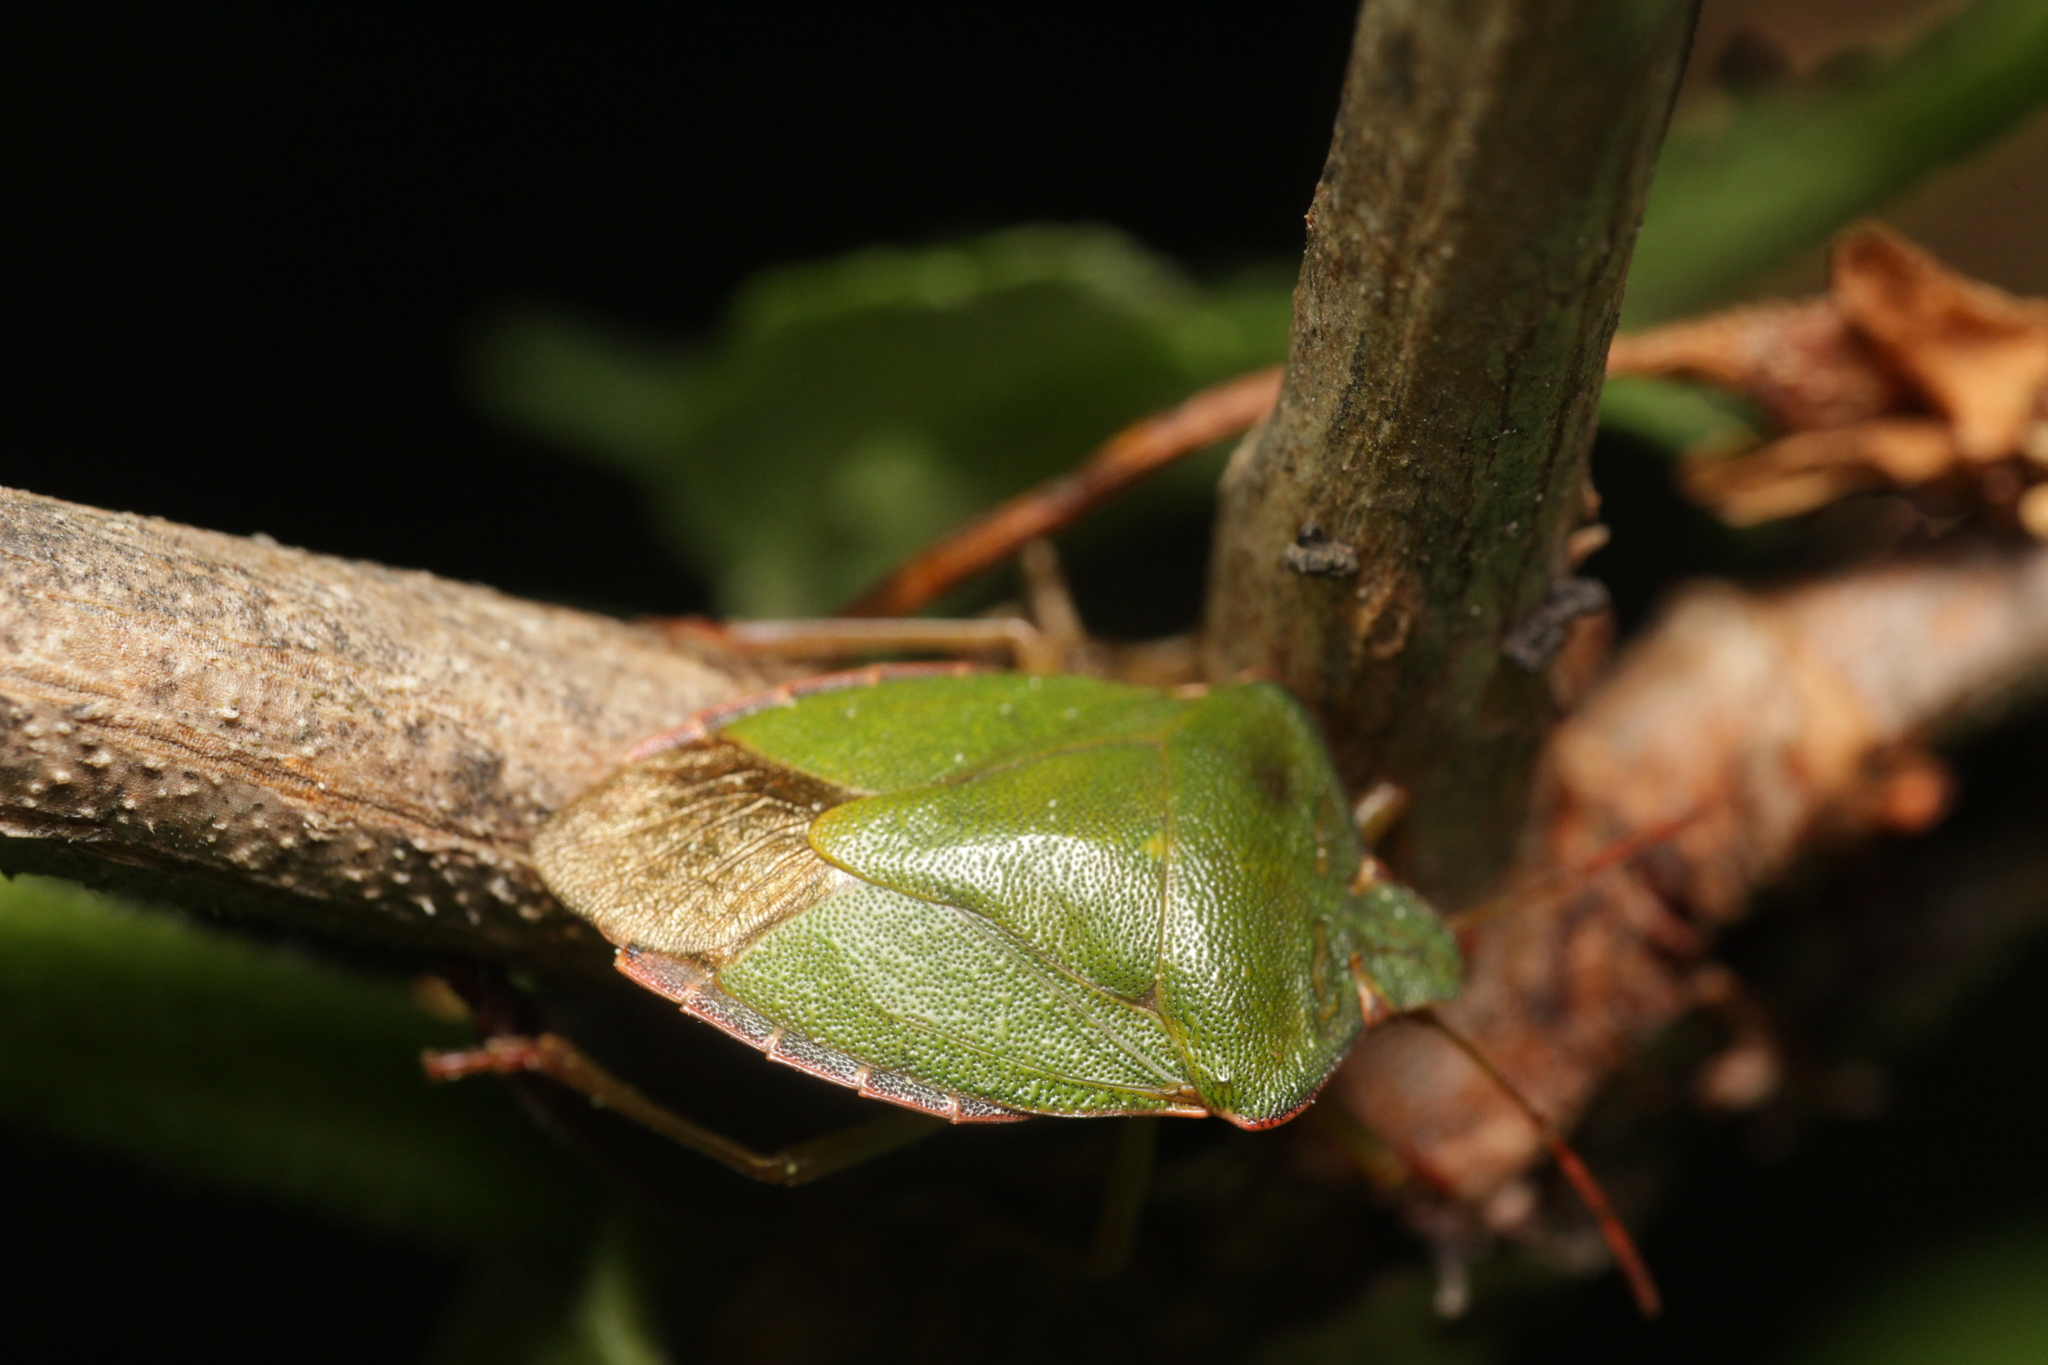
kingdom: Animalia
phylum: Arthropoda
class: Insecta
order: Hemiptera
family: Pentatomidae
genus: Palomena
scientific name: Palomena prasina
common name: Green shieldbug
